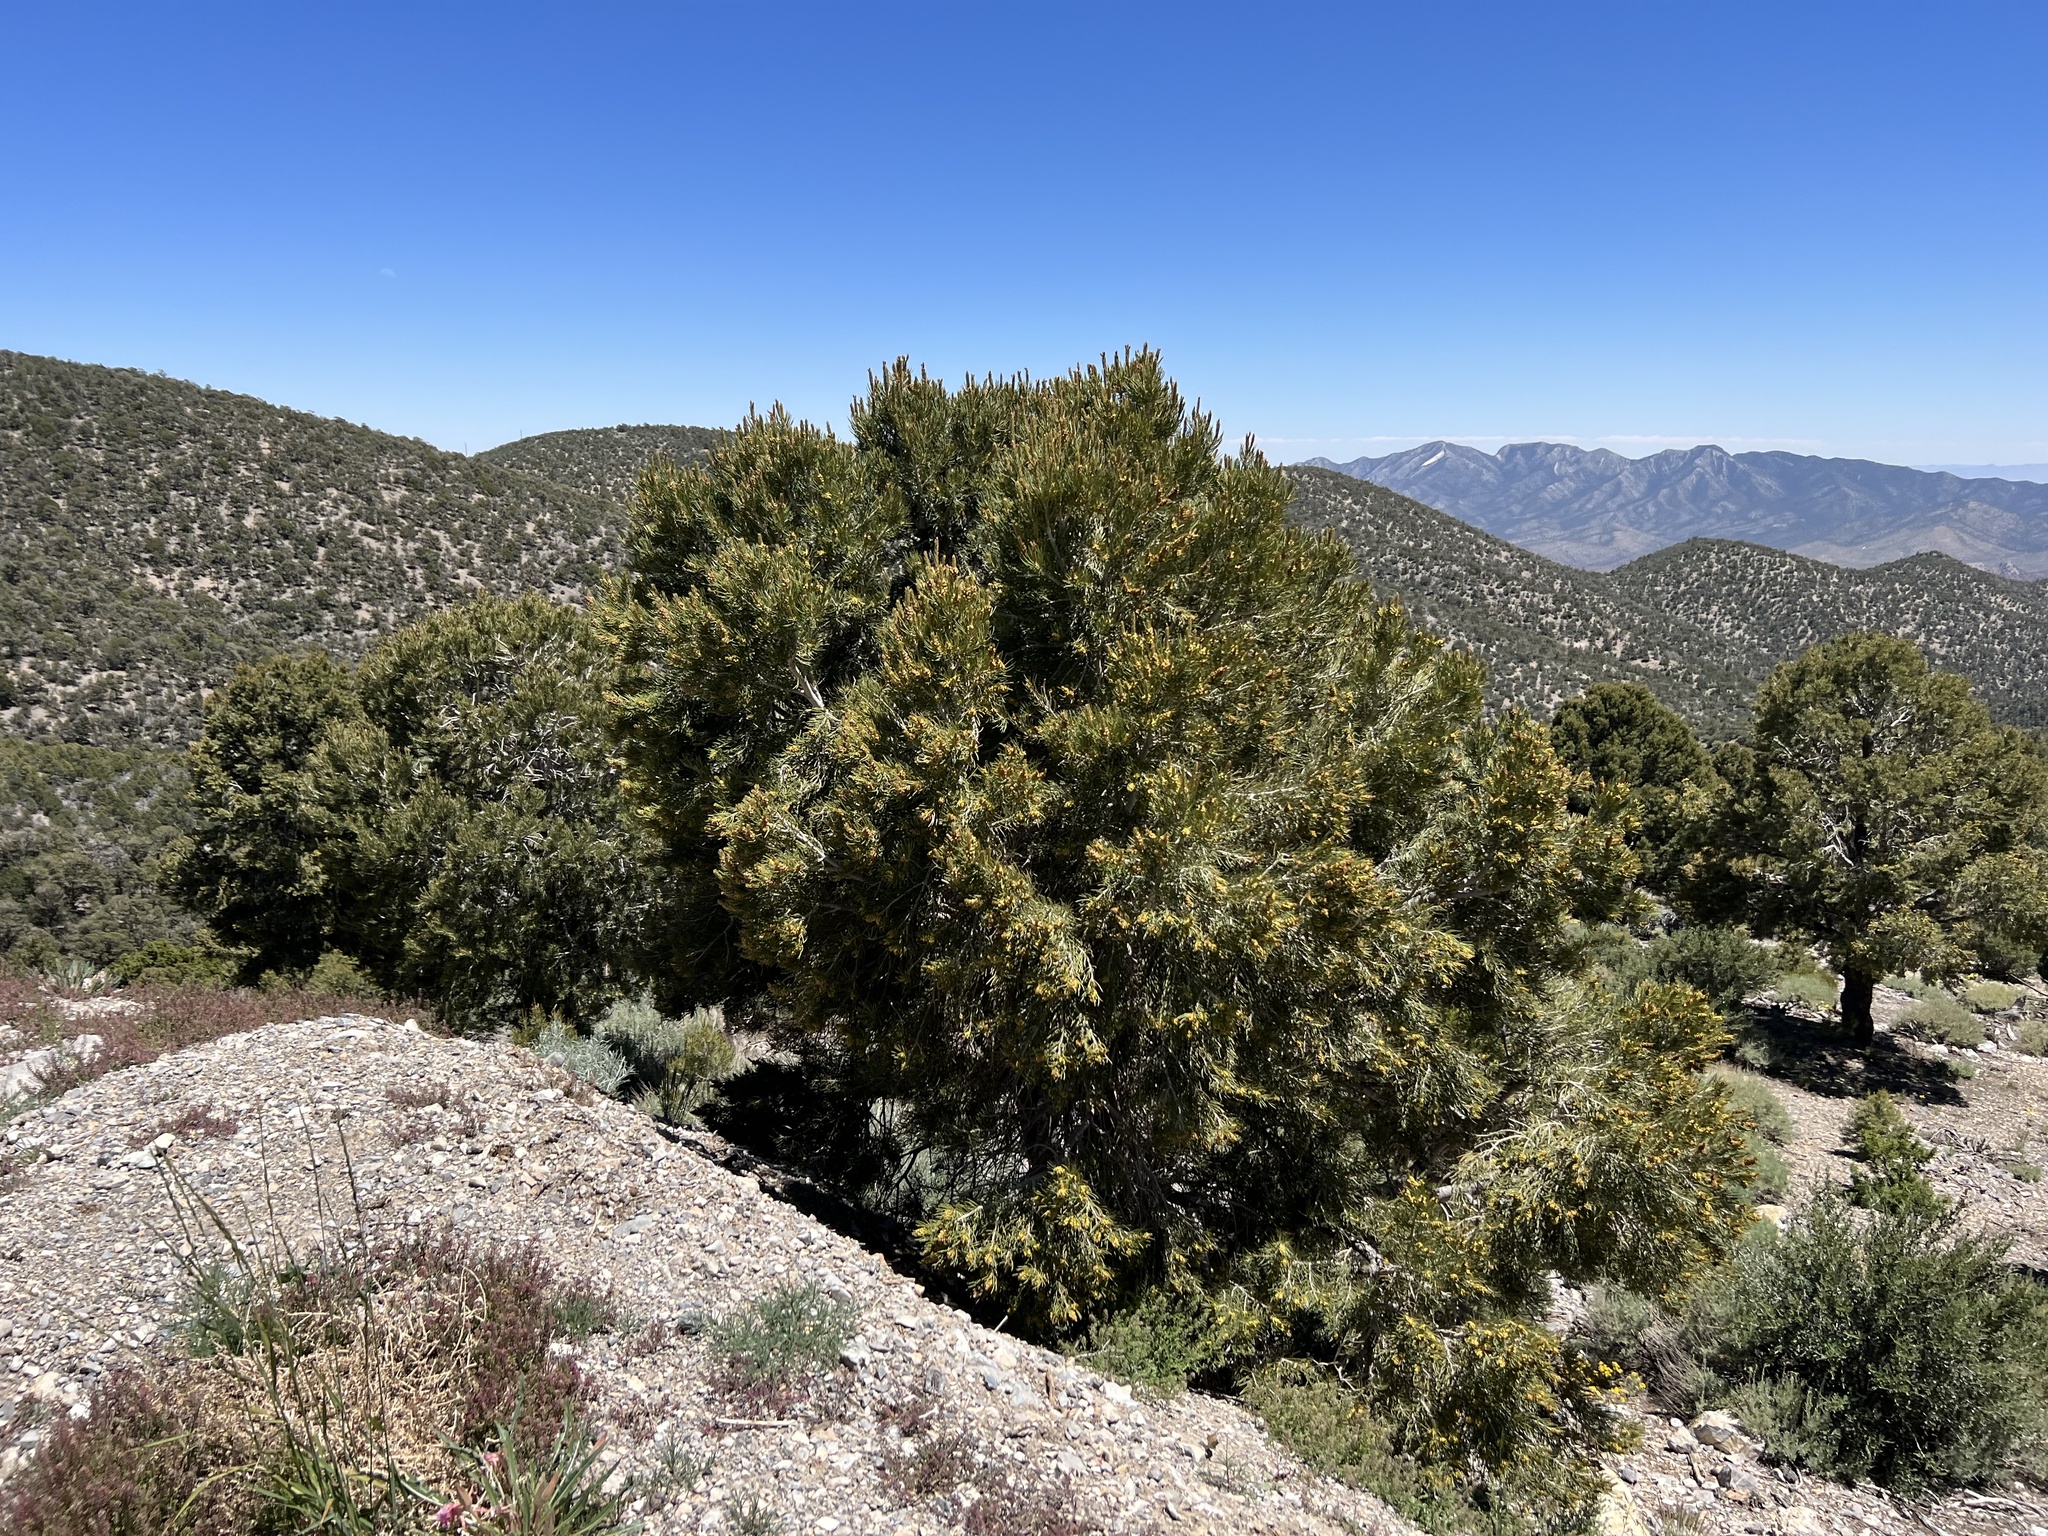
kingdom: Plantae
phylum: Tracheophyta
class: Pinopsida
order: Pinales
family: Pinaceae
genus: Pinus
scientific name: Pinus monophylla
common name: One-leaved nut pine
